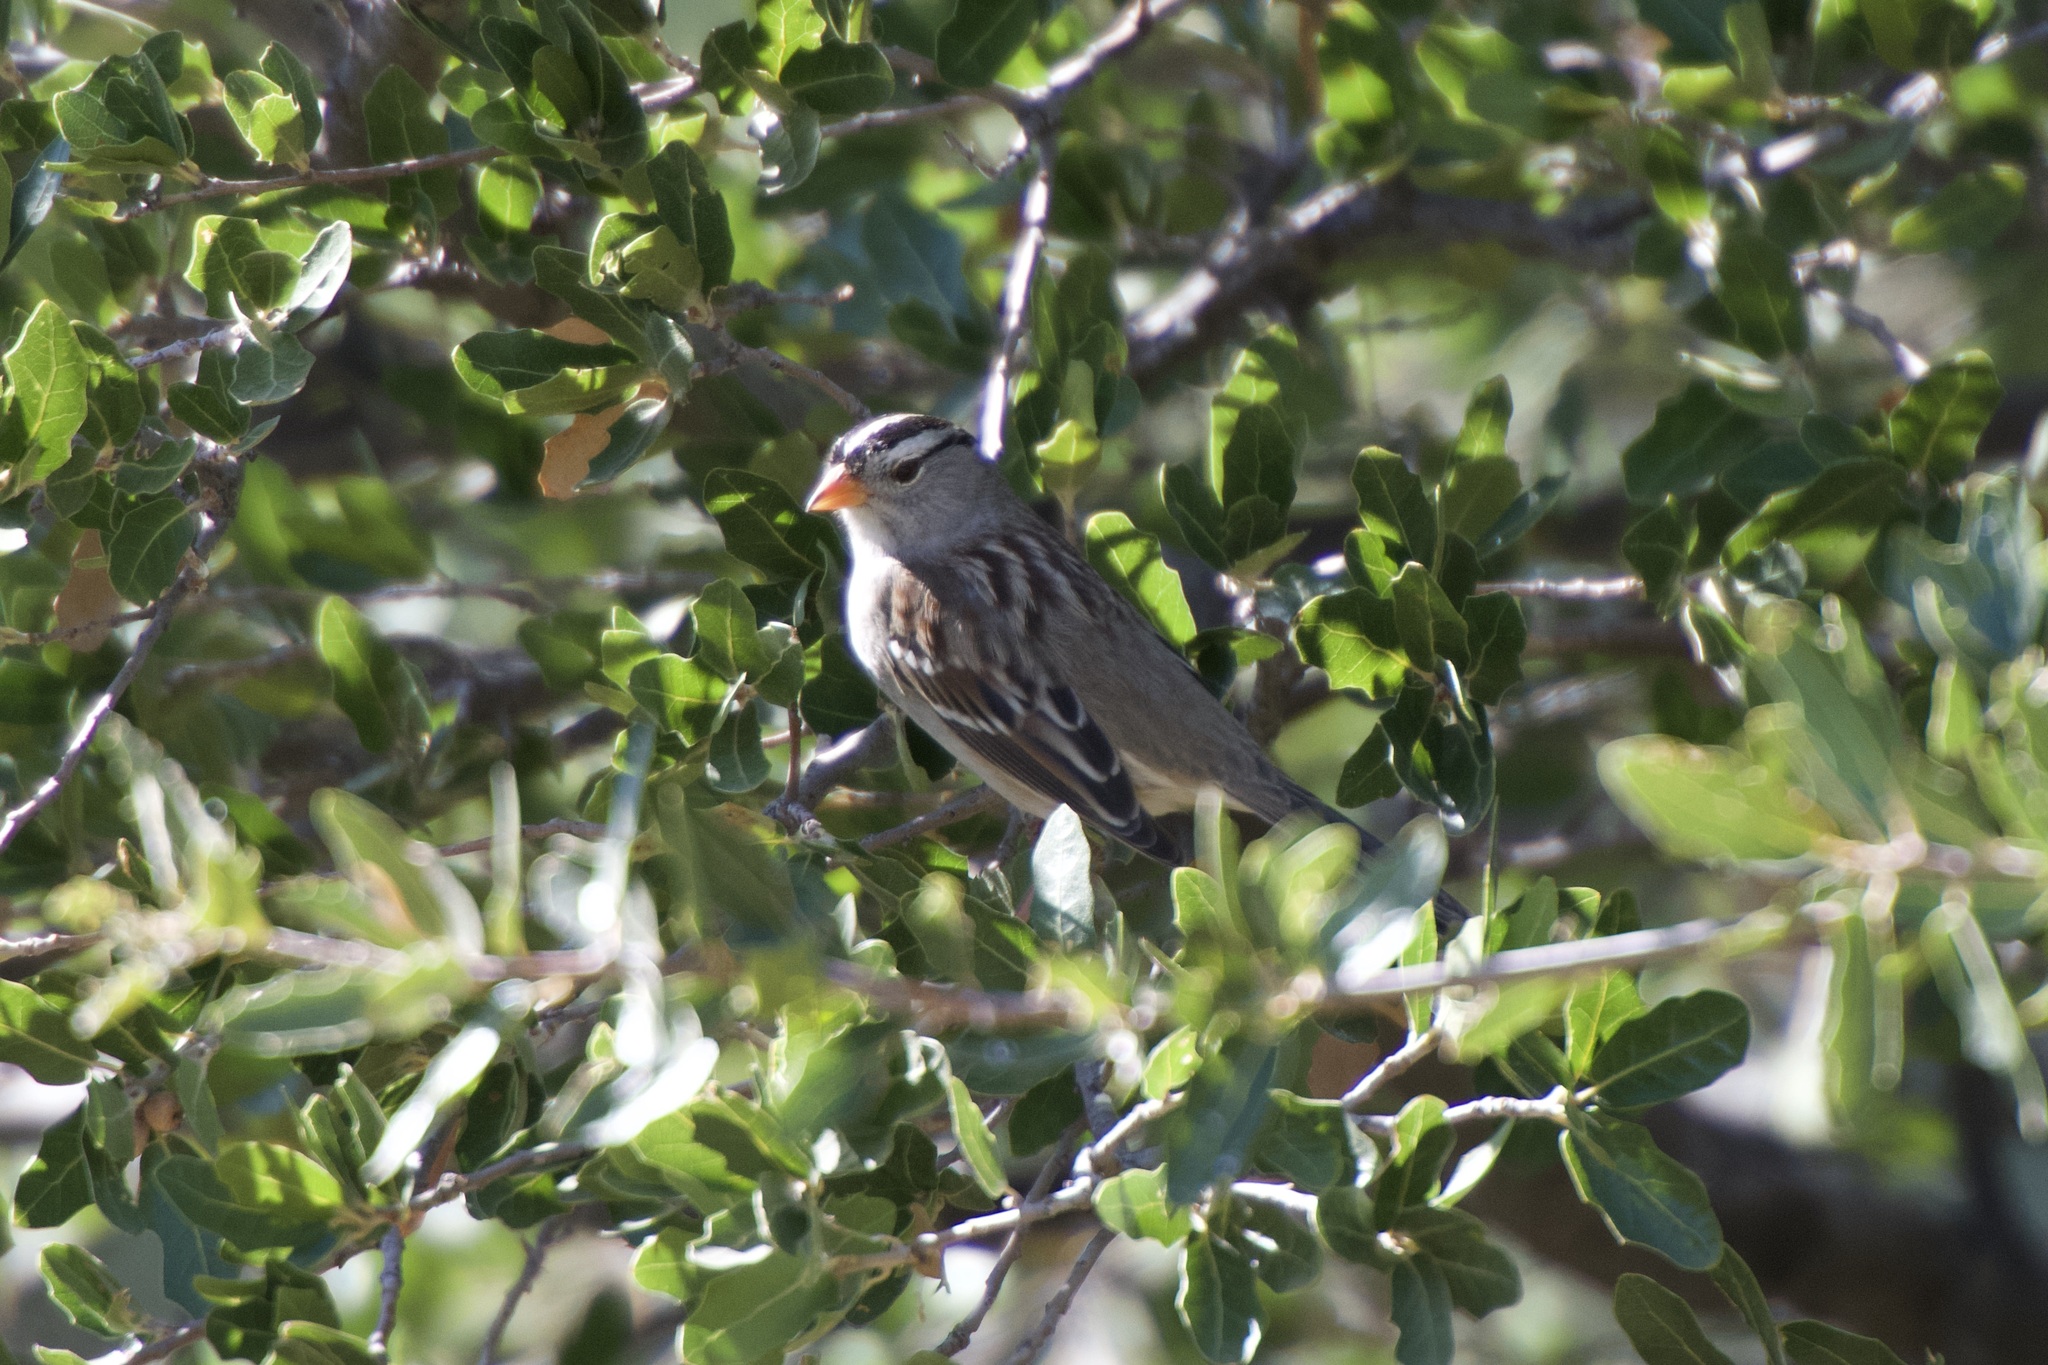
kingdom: Animalia
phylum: Chordata
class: Aves
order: Passeriformes
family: Passerellidae
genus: Zonotrichia
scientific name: Zonotrichia leucophrys
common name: White-crowned sparrow
